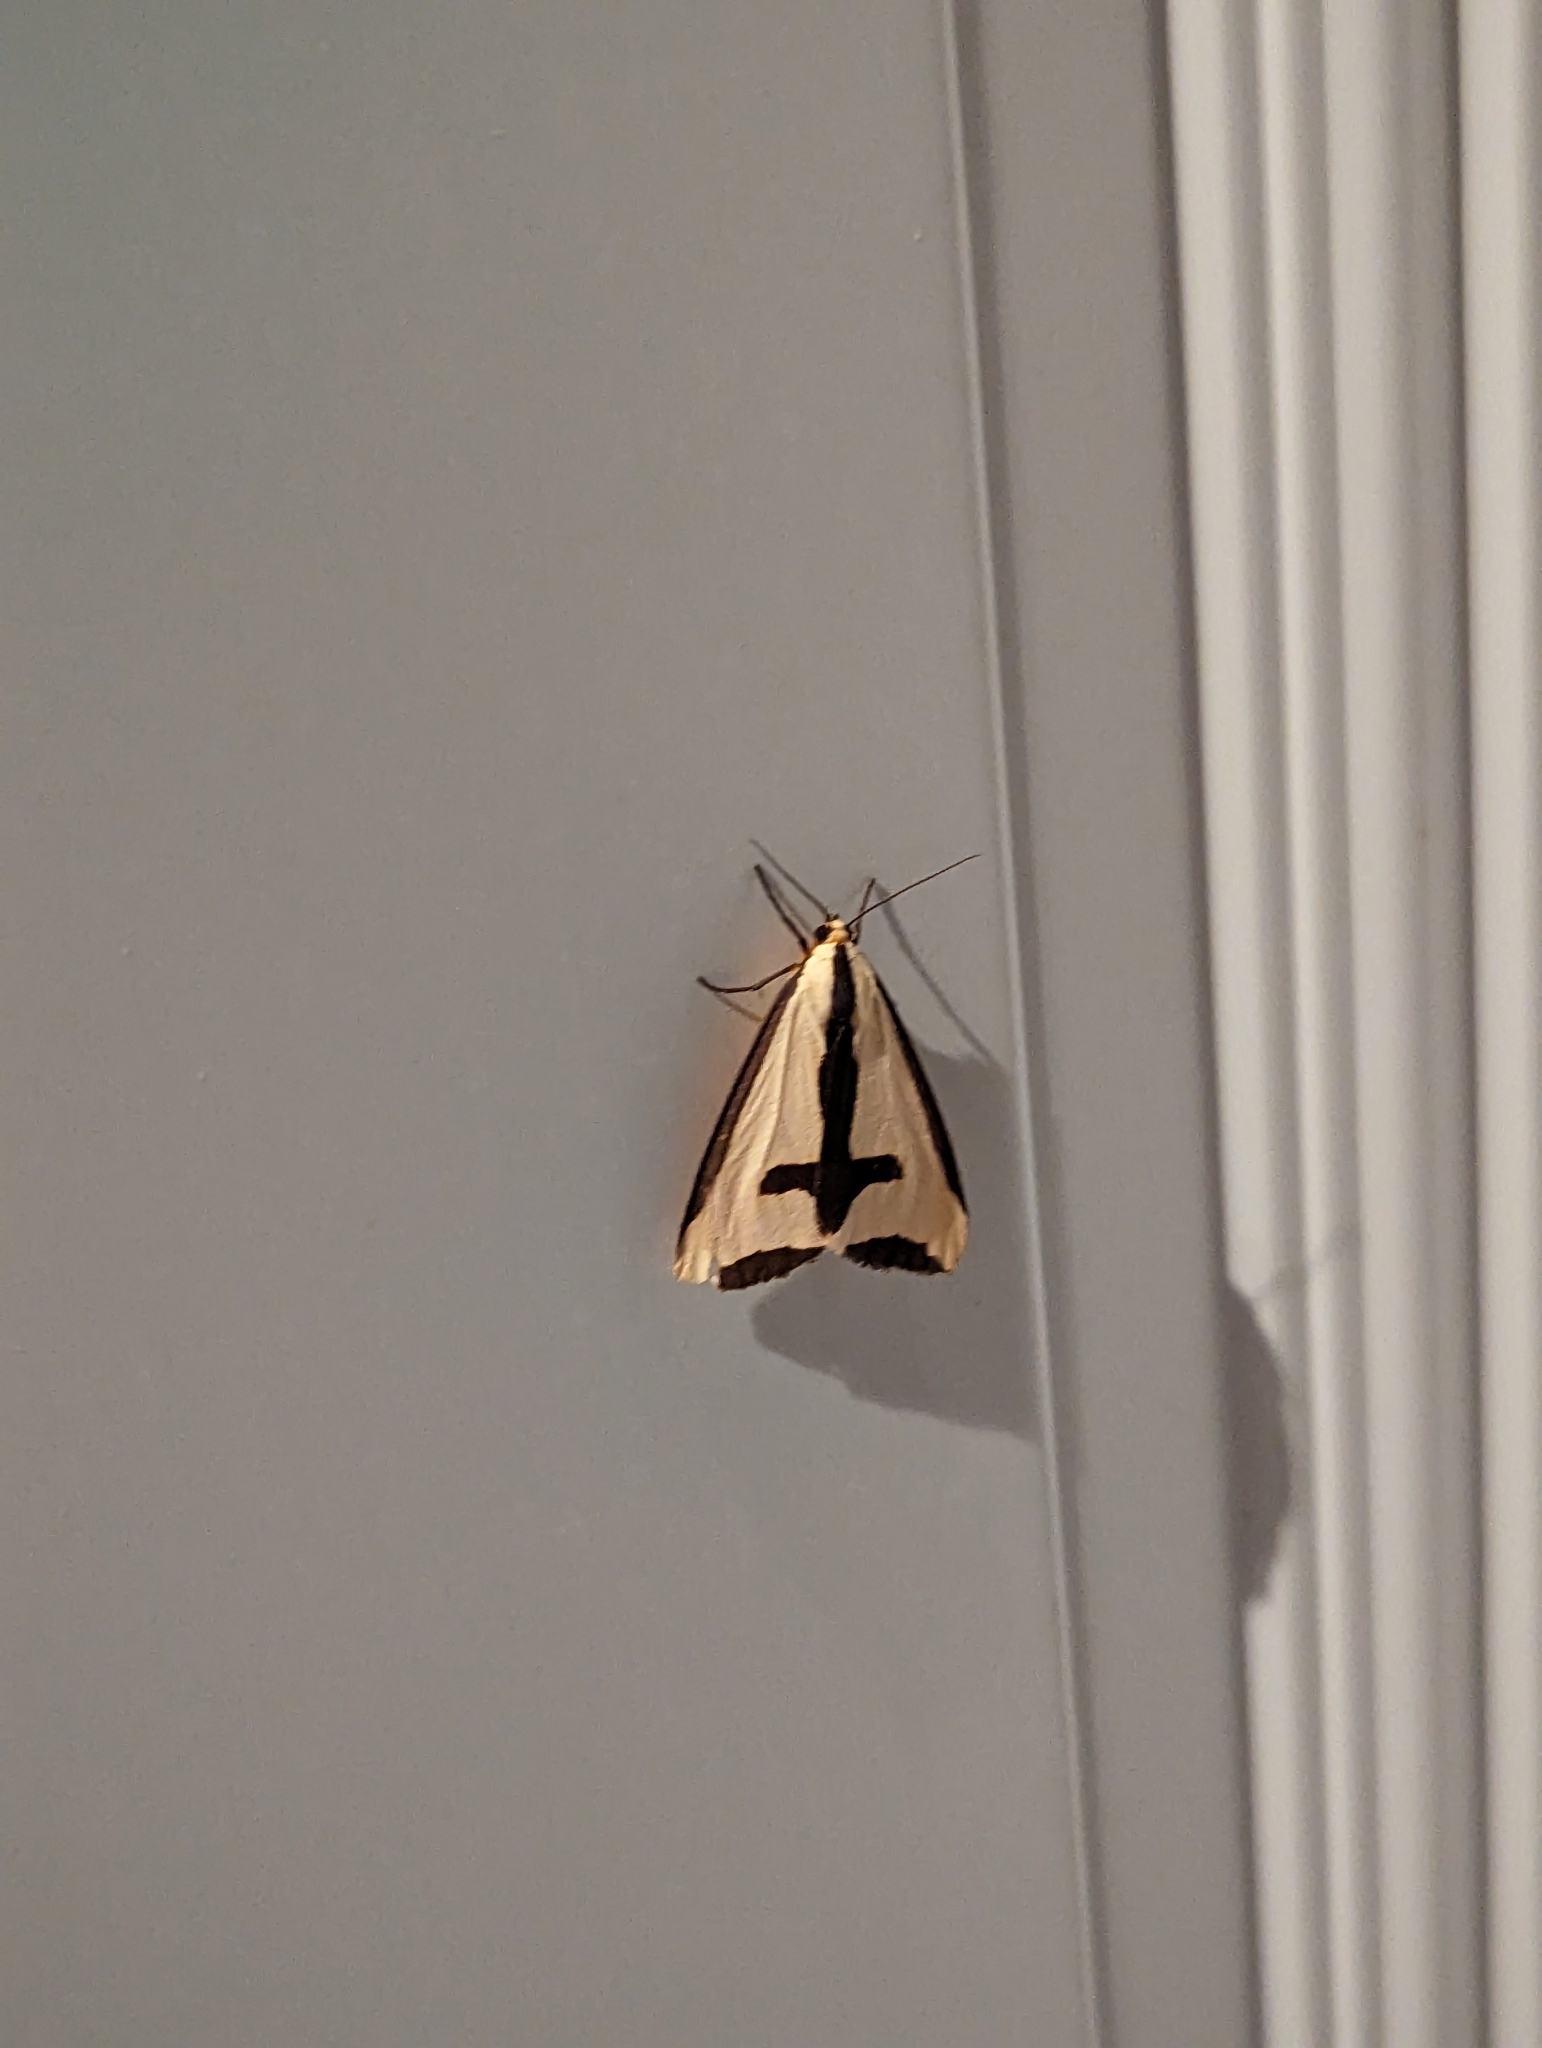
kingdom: Animalia
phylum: Arthropoda
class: Insecta
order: Lepidoptera
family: Erebidae
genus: Haploa
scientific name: Haploa clymene
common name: Clymene moth
